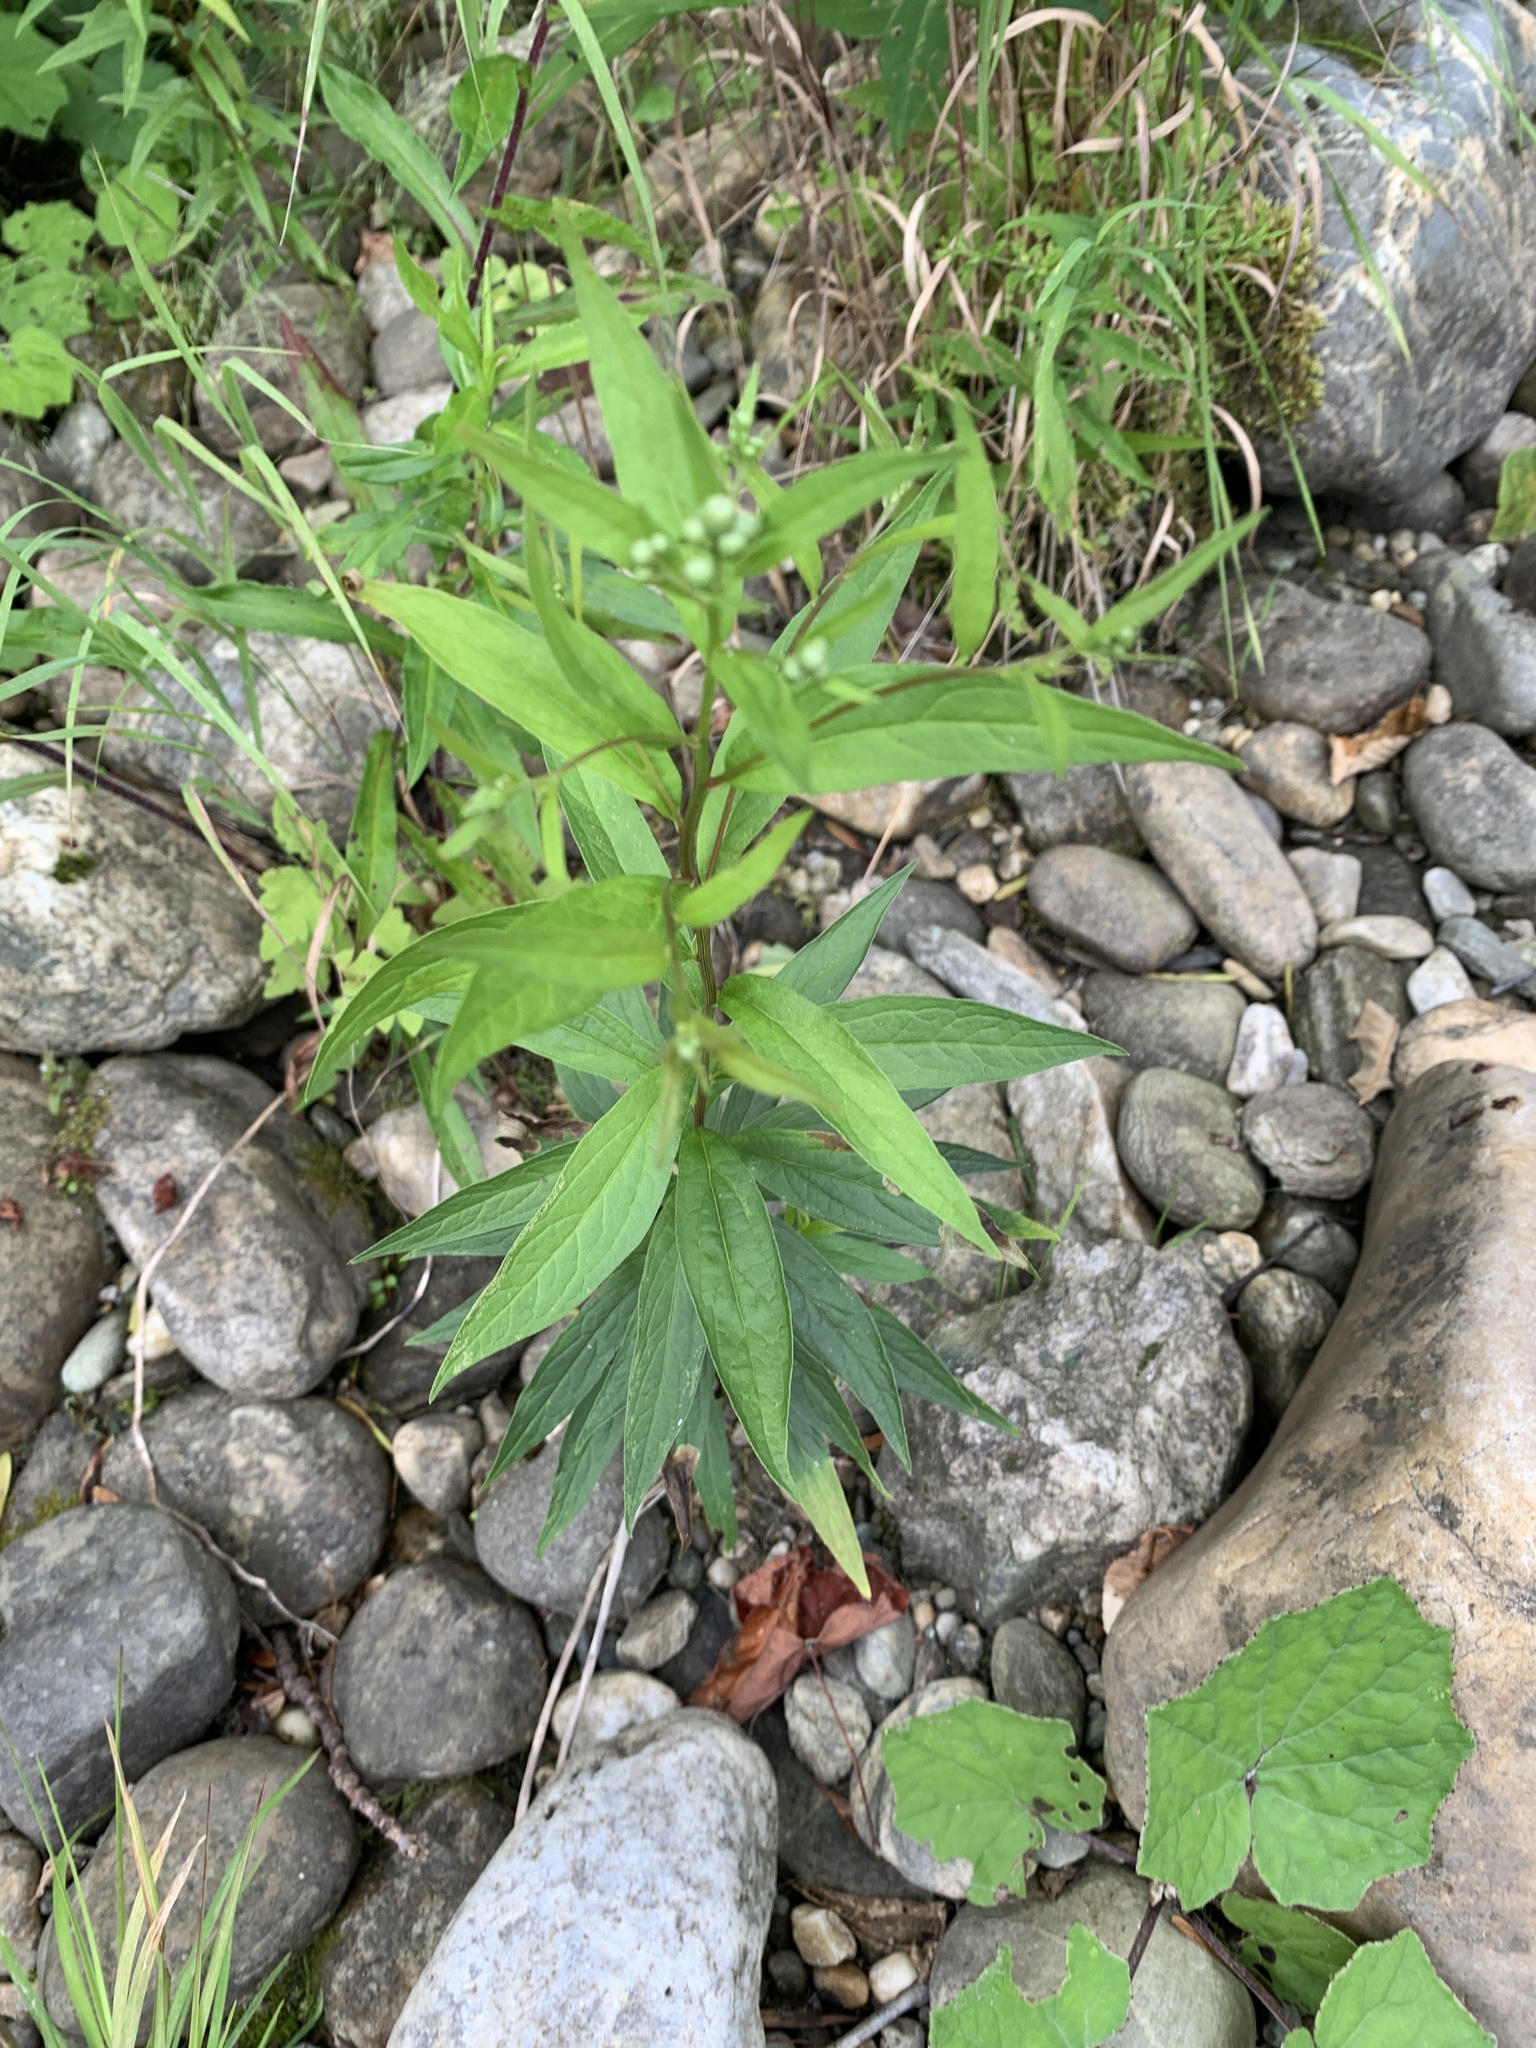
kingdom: Plantae
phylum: Tracheophyta
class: Magnoliopsida
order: Asterales
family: Asteraceae
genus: Doellingeria
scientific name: Doellingeria umbellata
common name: Flat-top white aster
